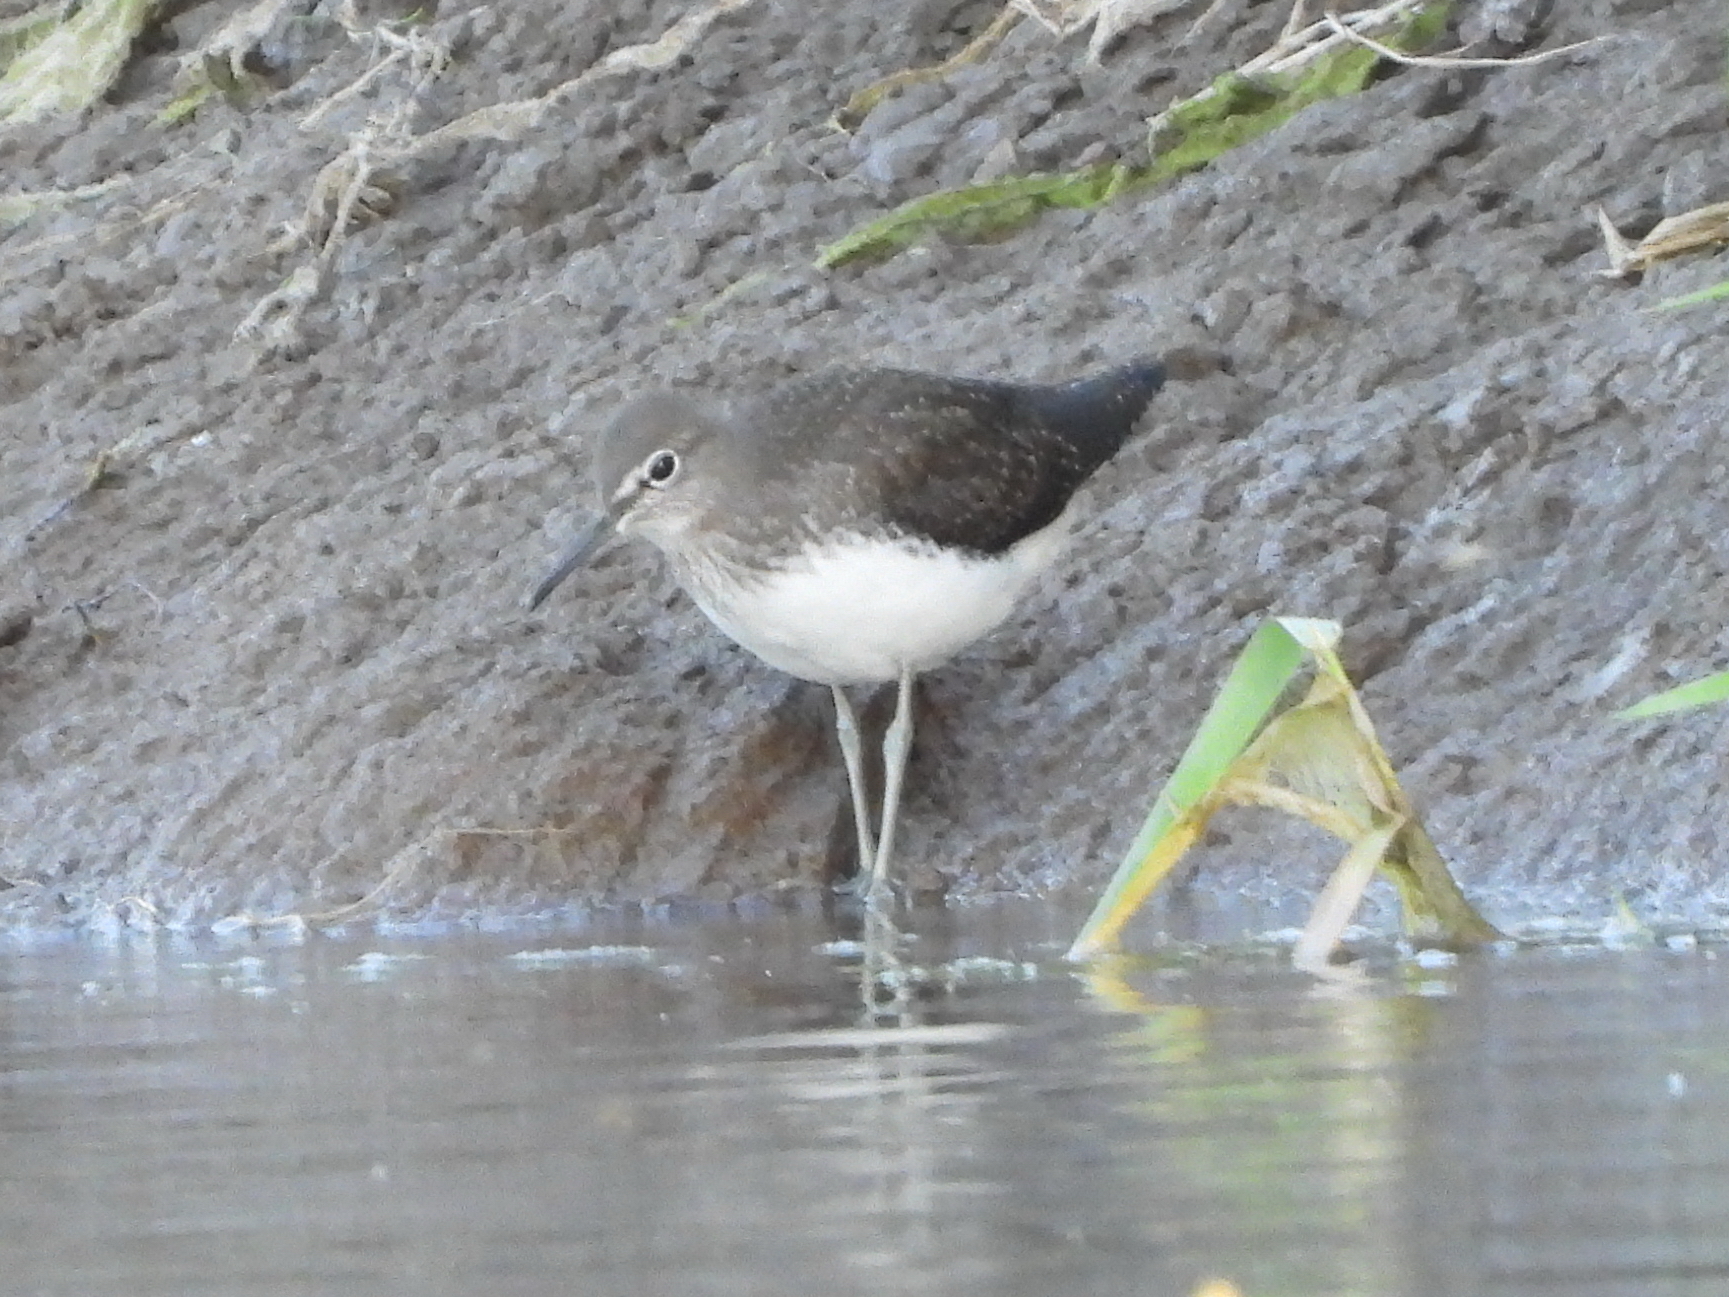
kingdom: Animalia
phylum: Chordata
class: Aves
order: Charadriiformes
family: Scolopacidae
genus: Tringa
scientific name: Tringa ochropus
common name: Green sandpiper
